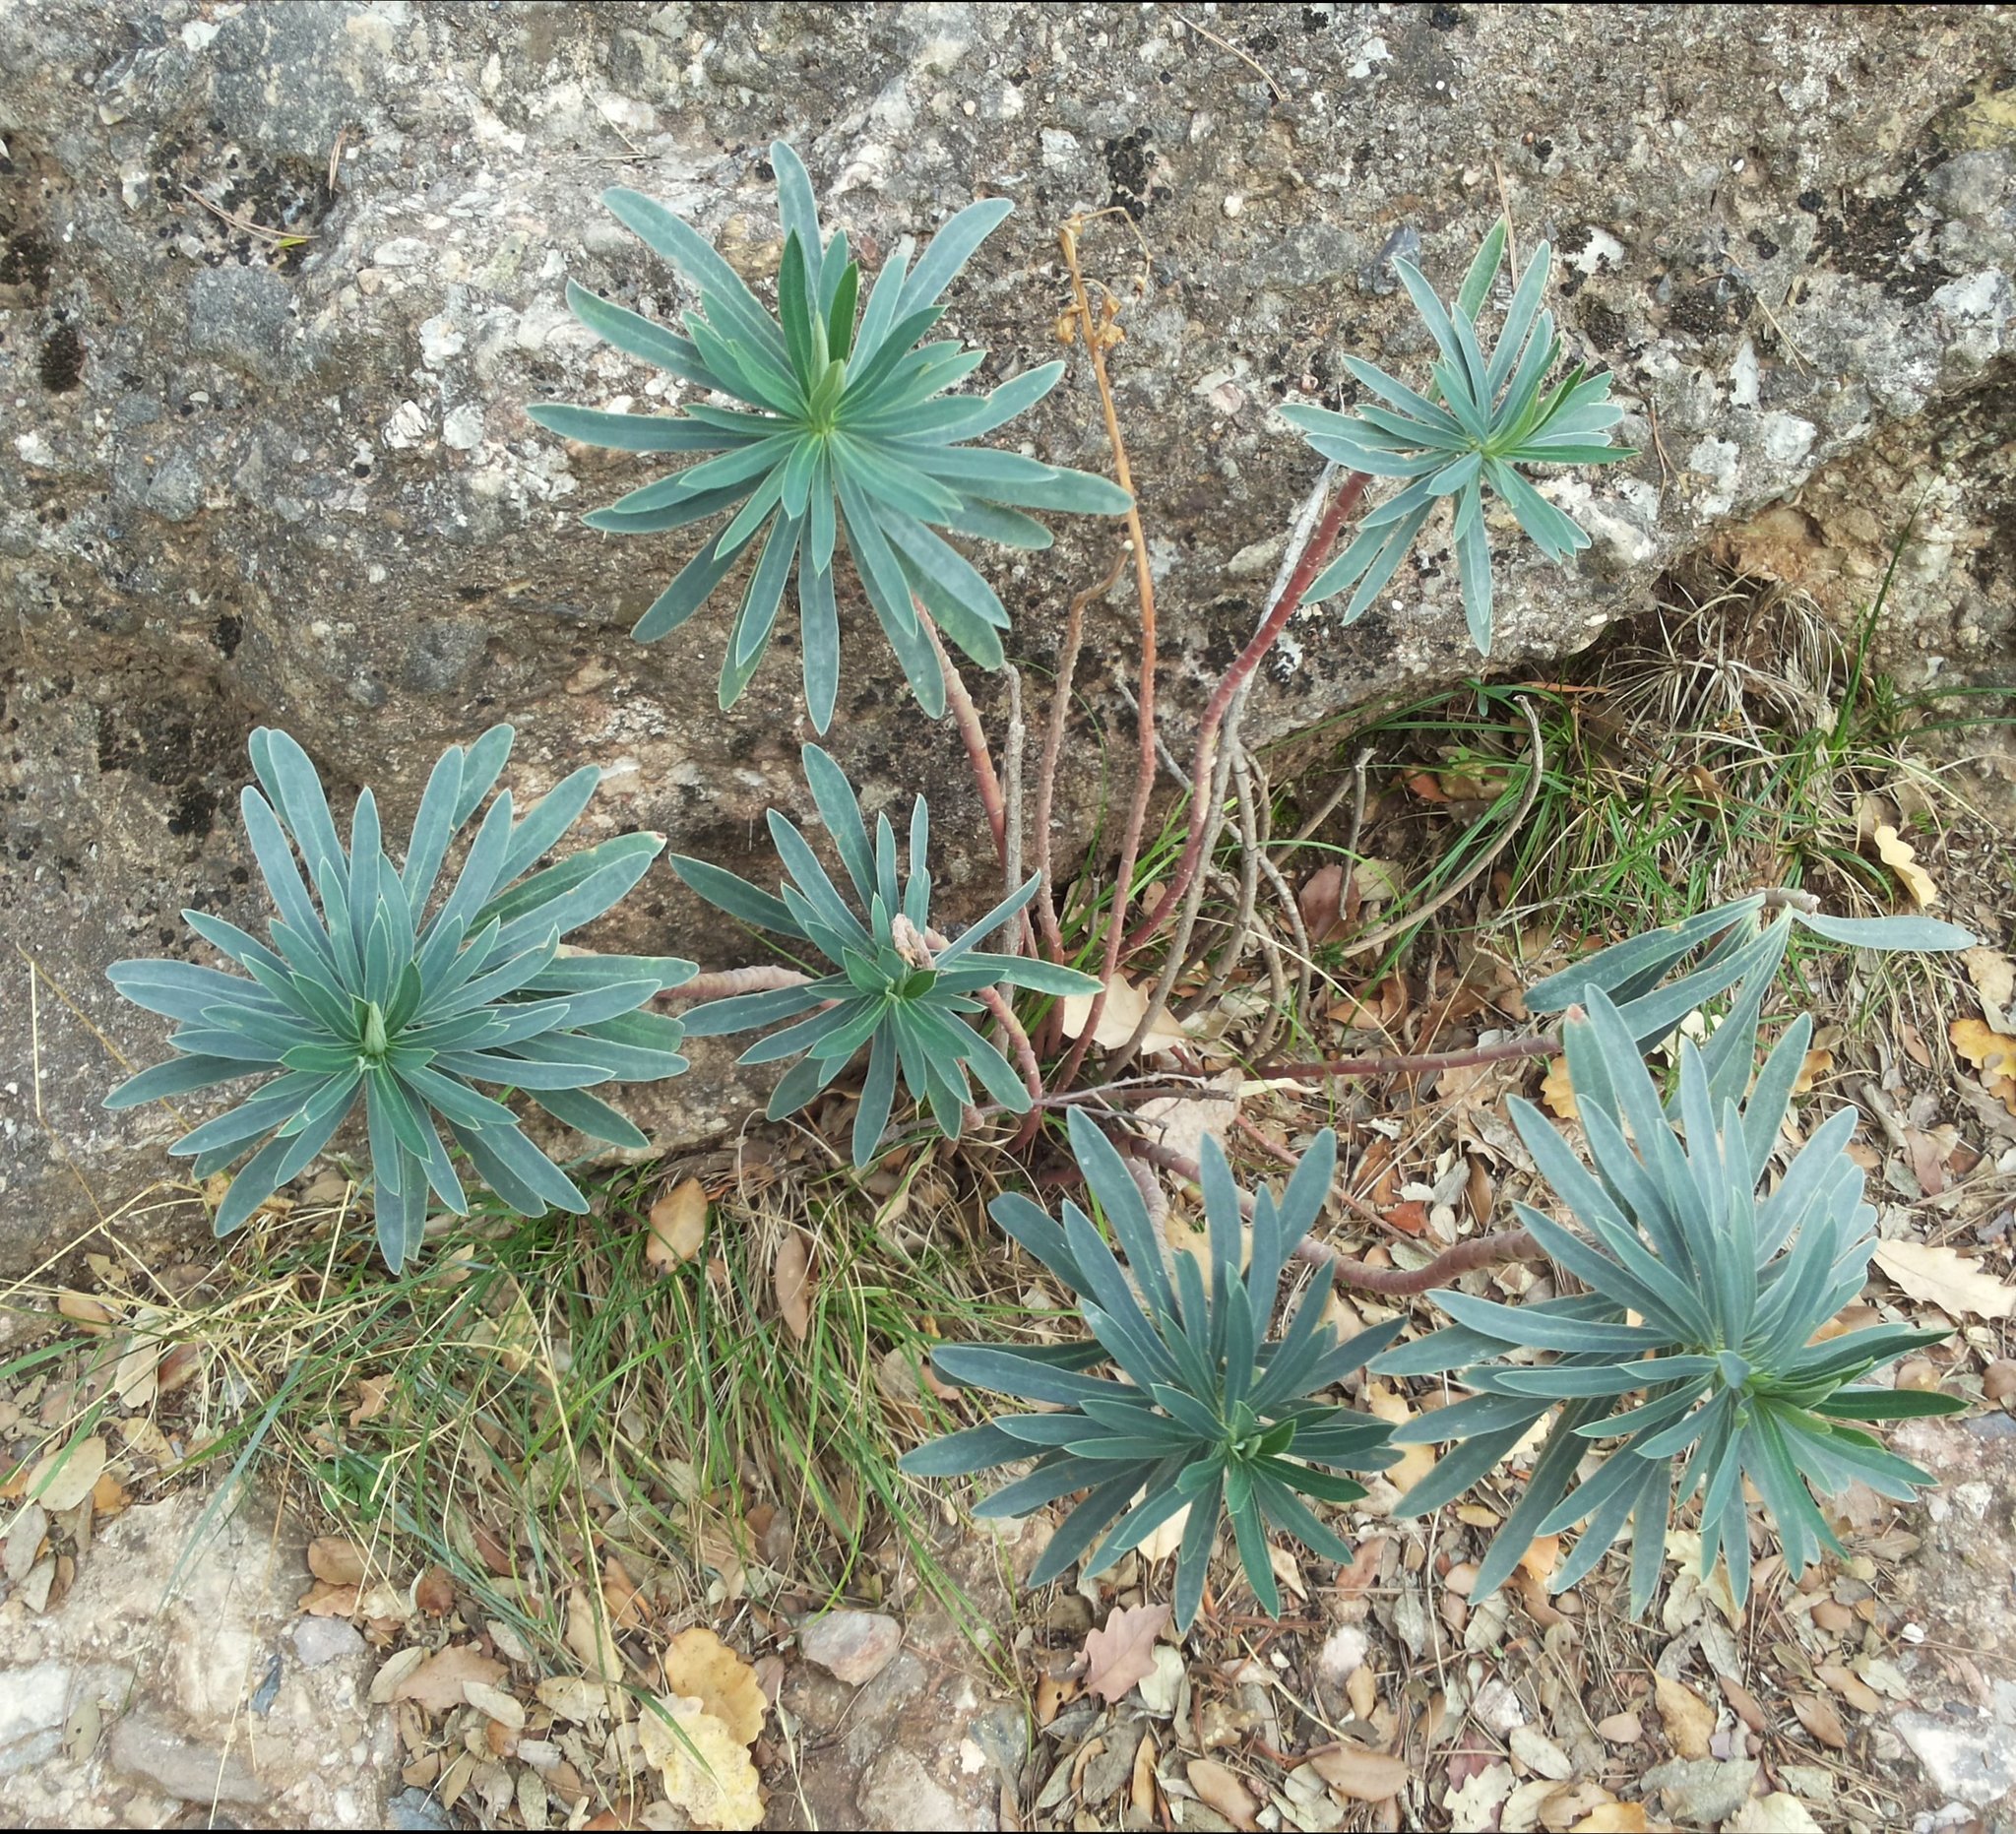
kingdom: Plantae
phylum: Tracheophyta
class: Magnoliopsida
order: Malpighiales
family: Euphorbiaceae
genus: Euphorbia
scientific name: Euphorbia characias
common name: Mediterranean spurge
